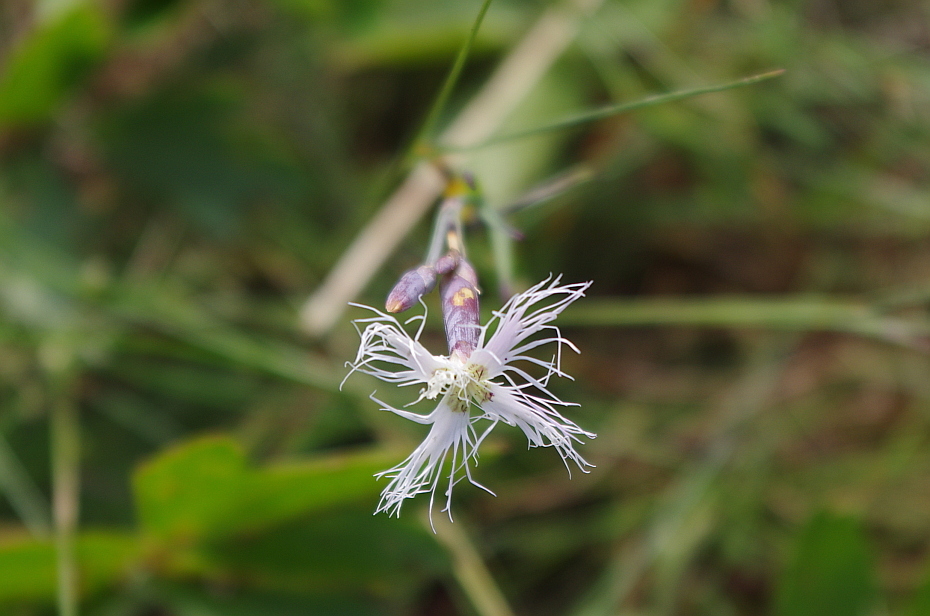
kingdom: Plantae
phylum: Tracheophyta
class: Magnoliopsida
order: Caryophyllales
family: Caryophyllaceae
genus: Dianthus
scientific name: Dianthus superbus
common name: Fringed pink
